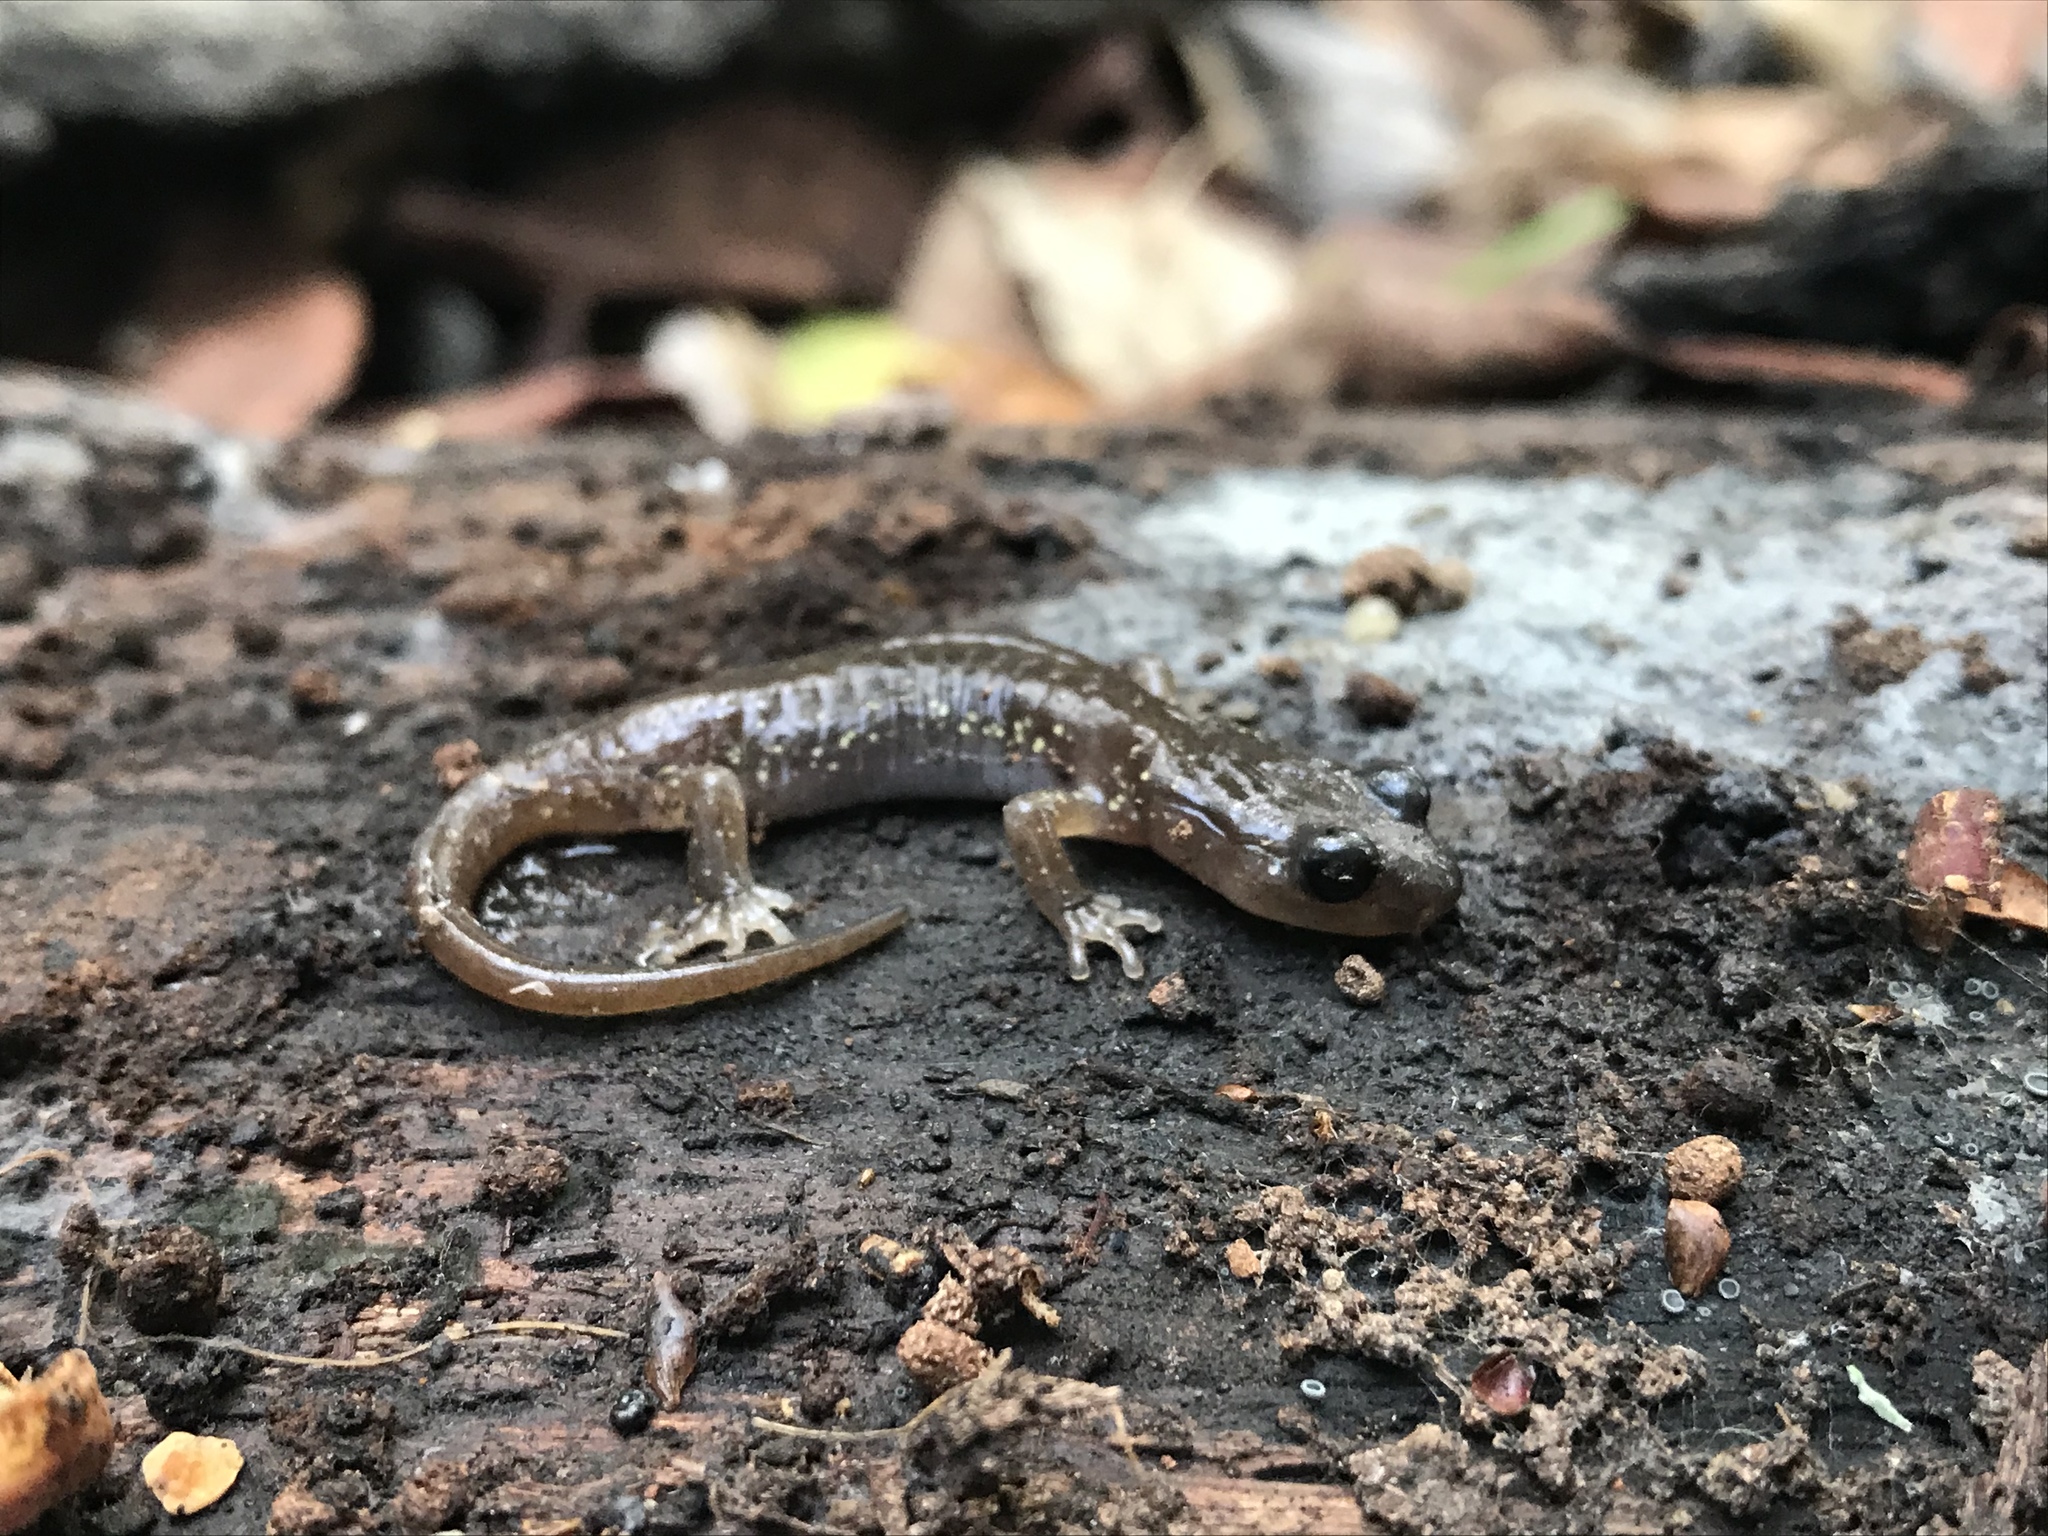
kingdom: Animalia
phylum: Chordata
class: Amphibia
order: Caudata
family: Plethodontidae
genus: Aneides
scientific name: Aneides lugubris
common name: Arboreal salamander
